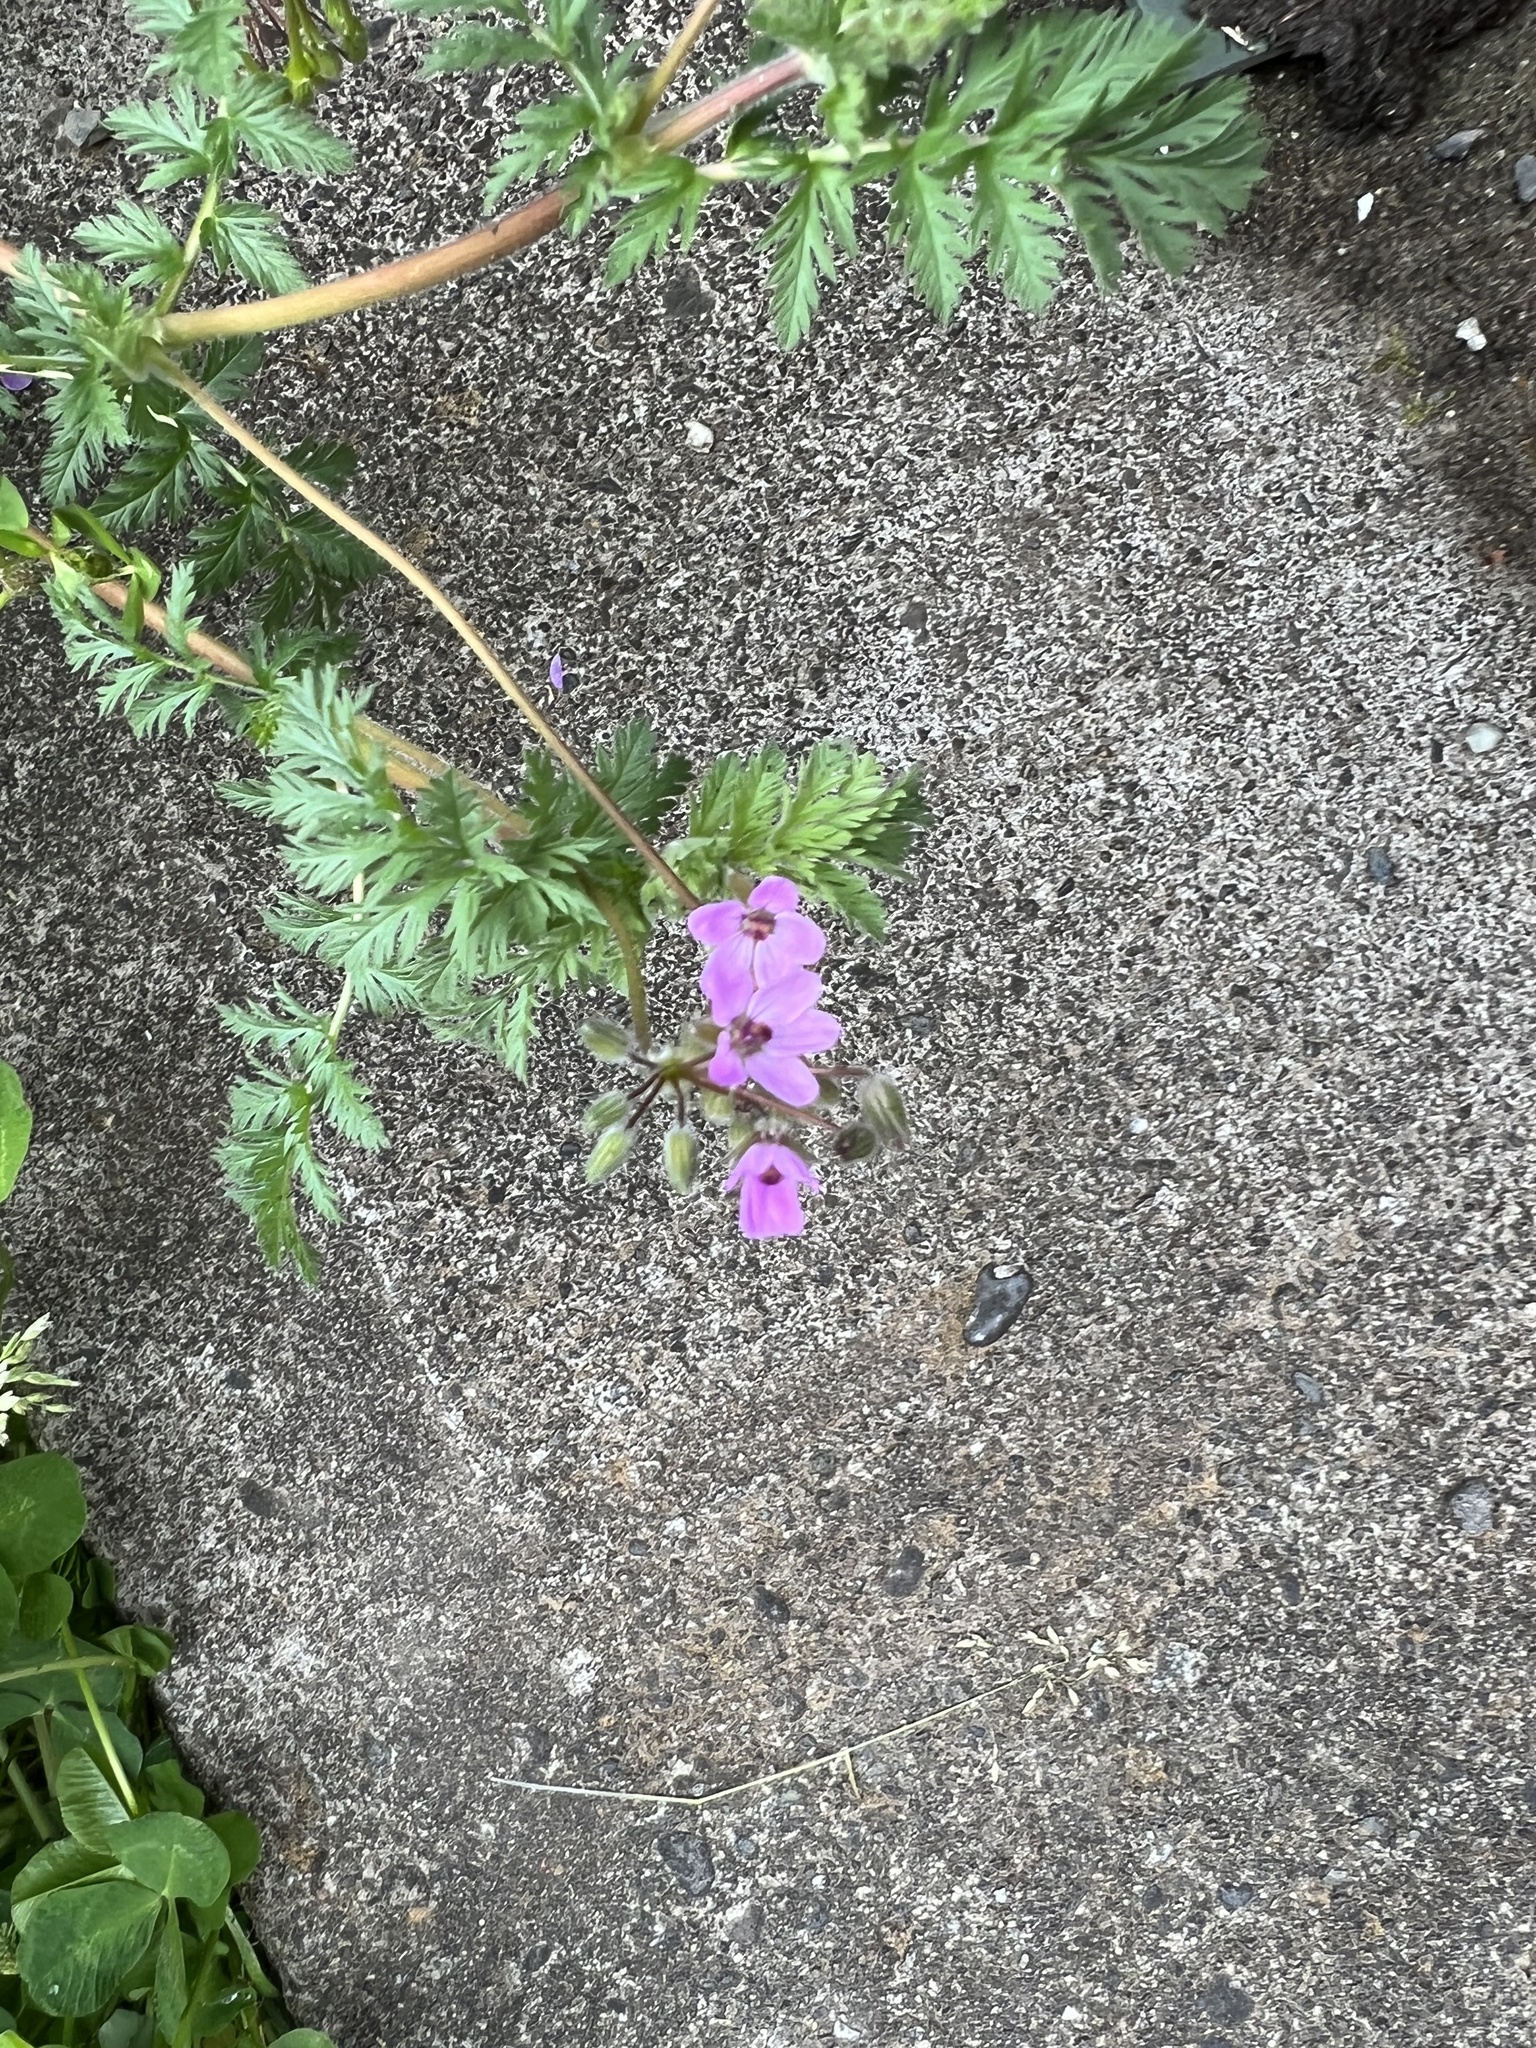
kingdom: Plantae
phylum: Tracheophyta
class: Magnoliopsida
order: Geraniales
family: Geraniaceae
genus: Erodium
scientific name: Erodium cicutarium
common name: Common stork's-bill
